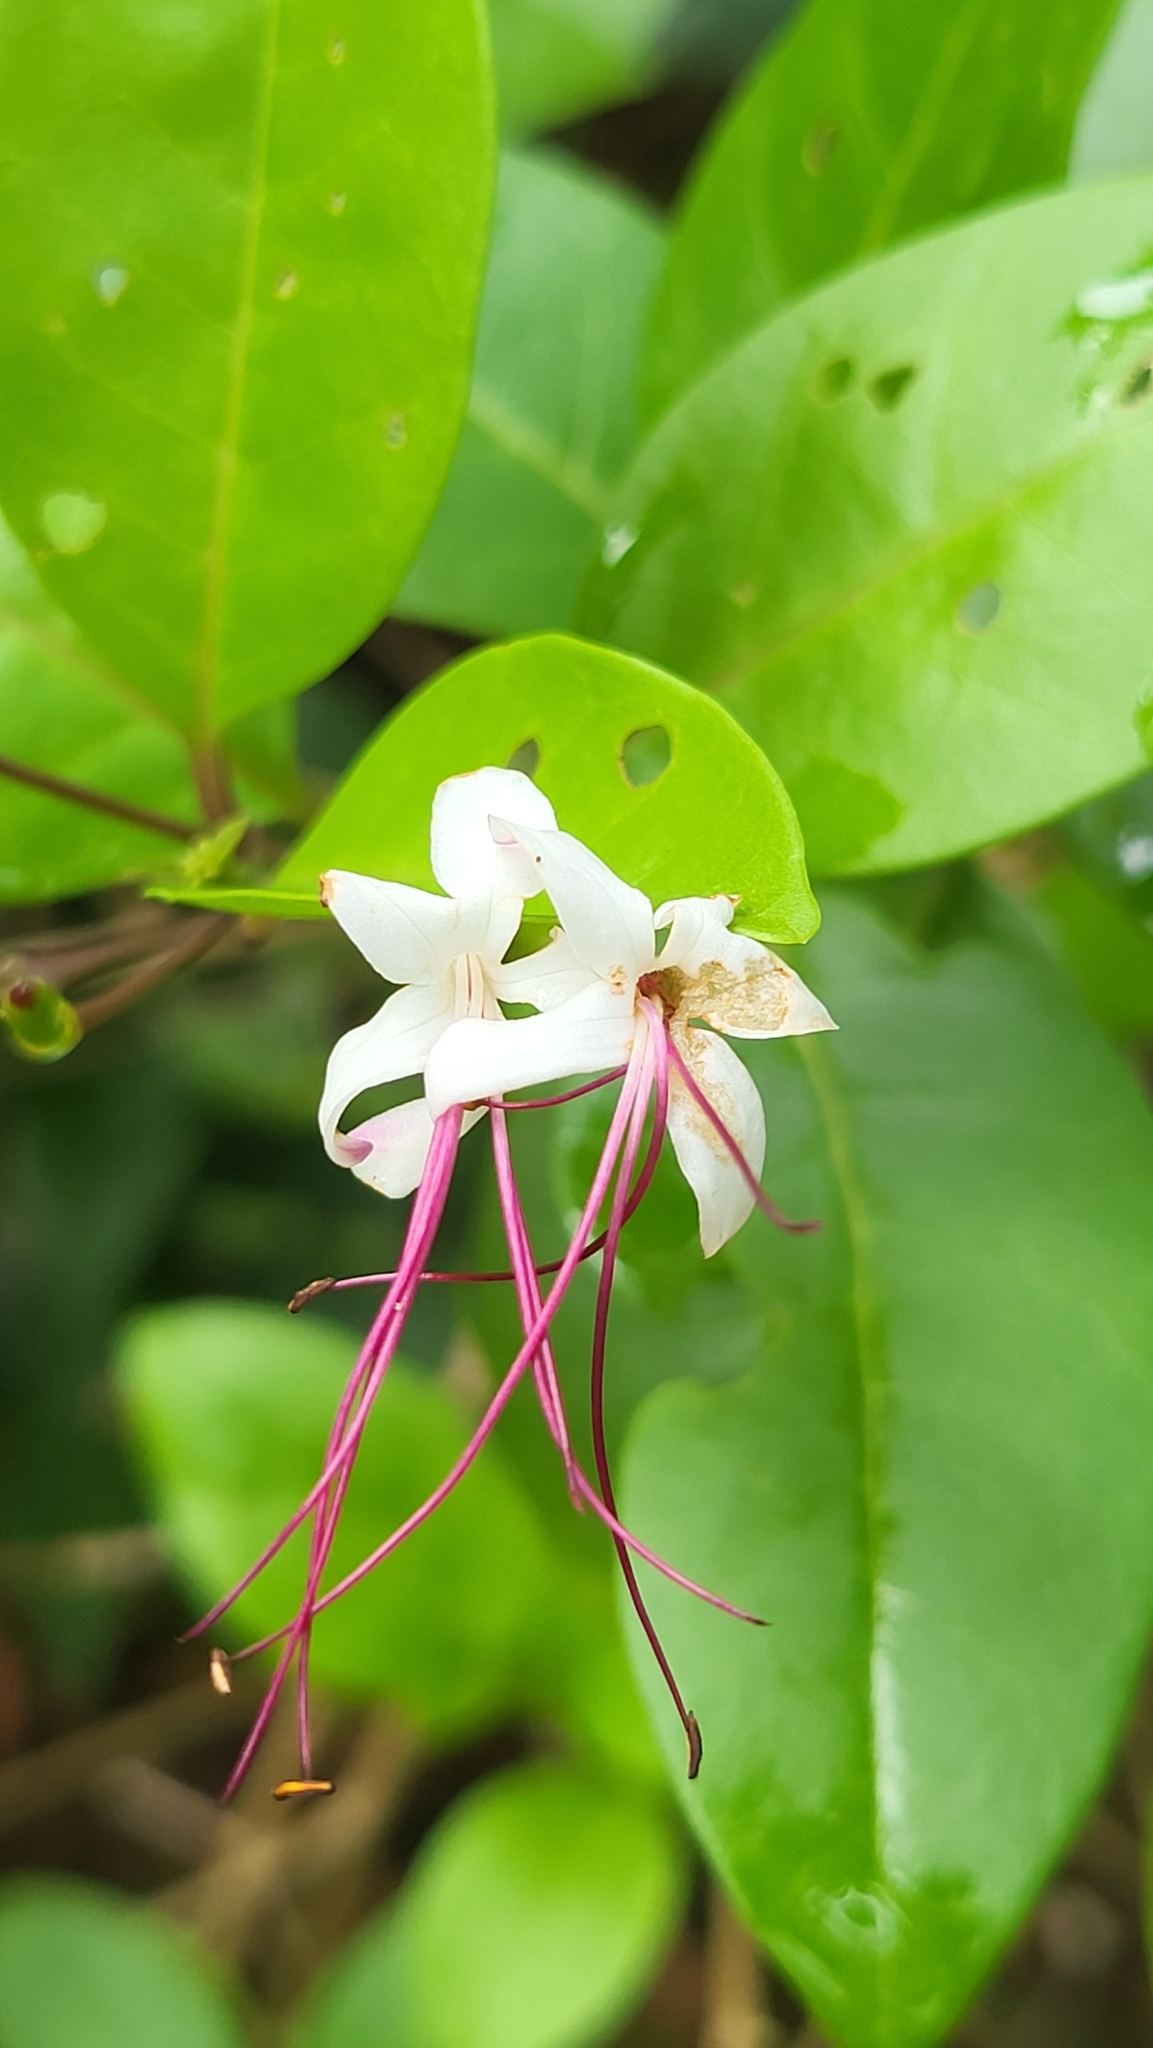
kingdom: Plantae
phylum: Tracheophyta
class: Magnoliopsida
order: Lamiales
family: Lamiaceae
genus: Volkameria
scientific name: Volkameria inermis
